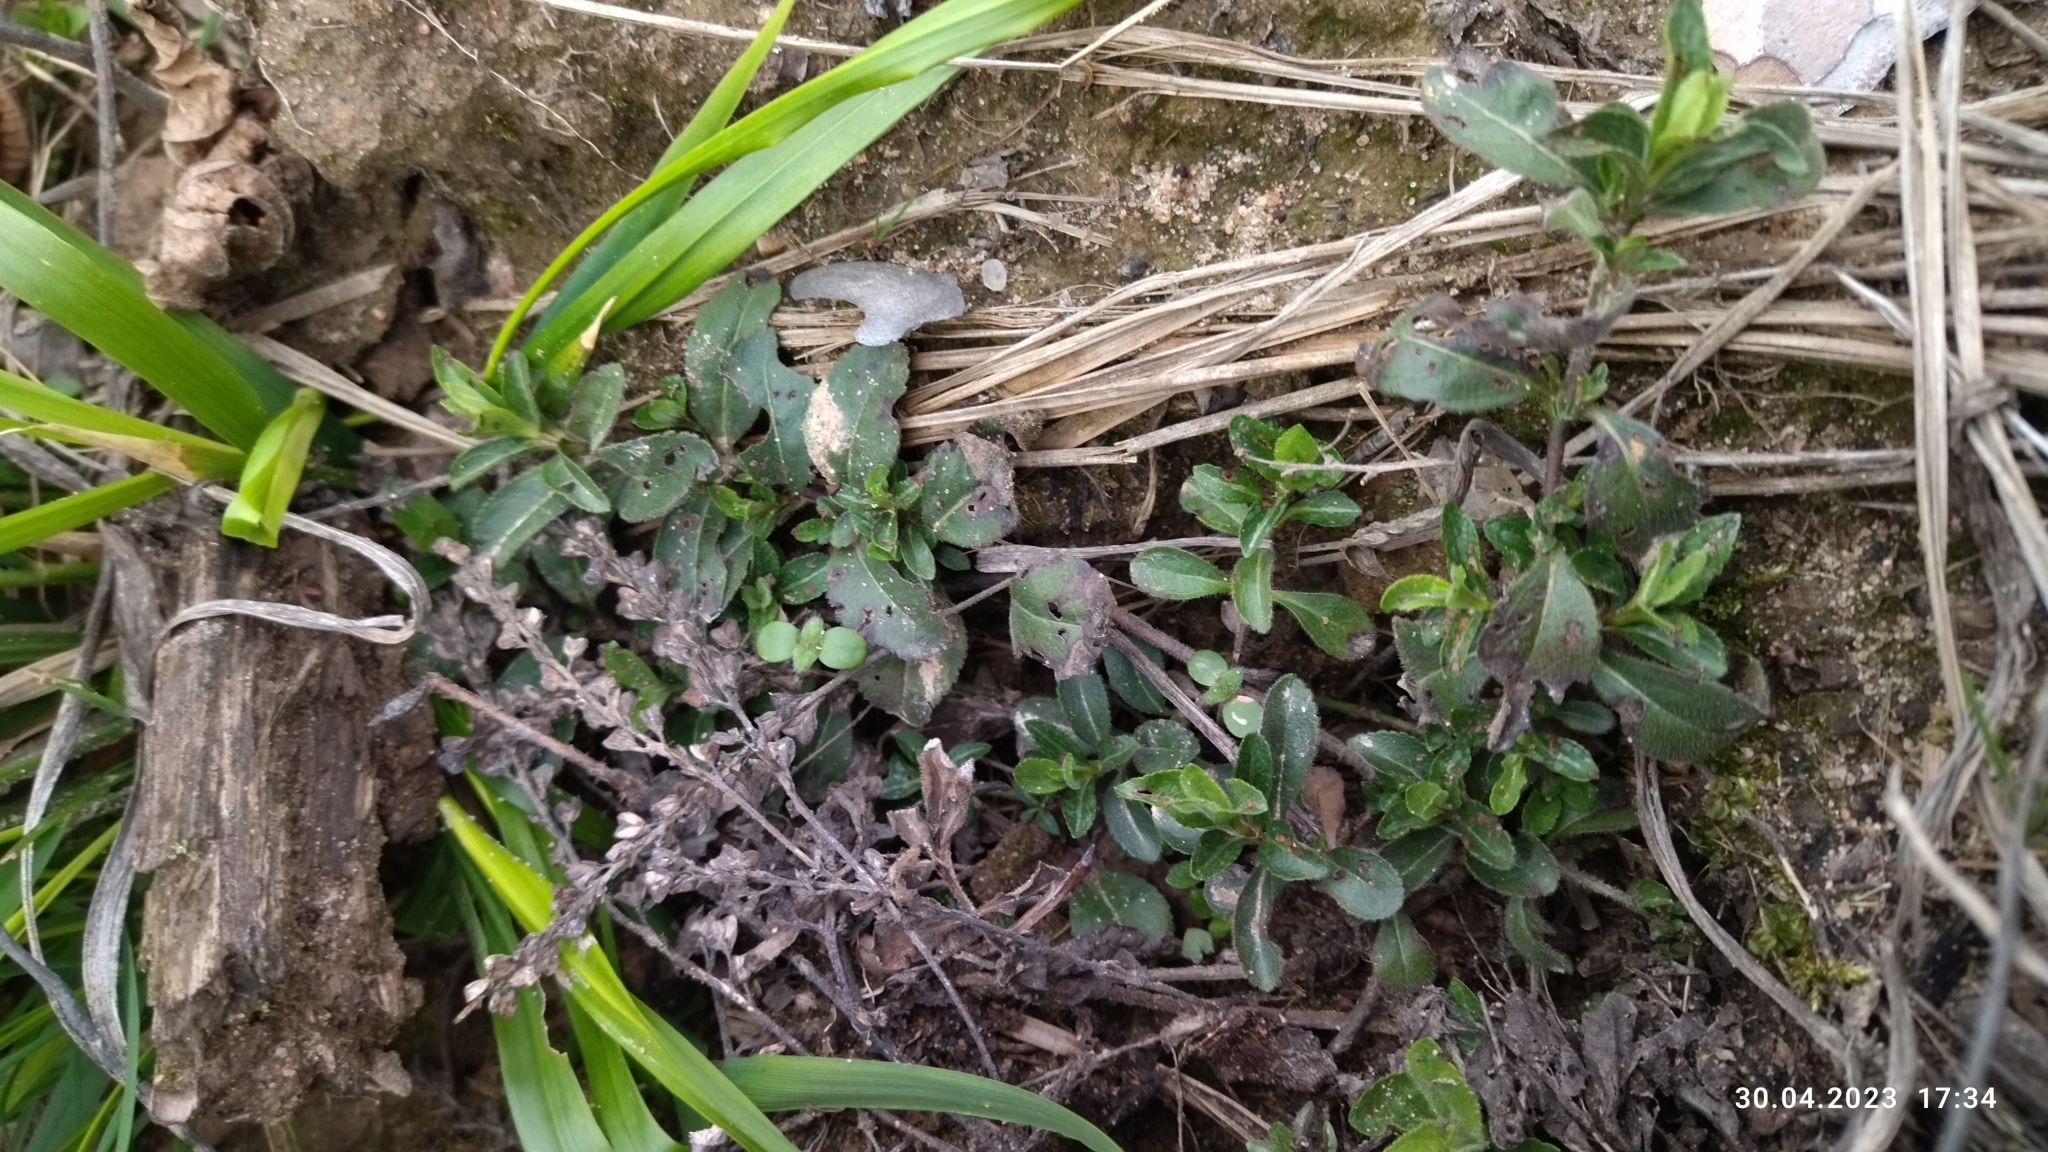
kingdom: Plantae
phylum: Tracheophyta
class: Magnoliopsida
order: Lamiales
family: Plantaginaceae
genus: Veronica
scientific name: Veronica officinalis
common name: Common speedwell
